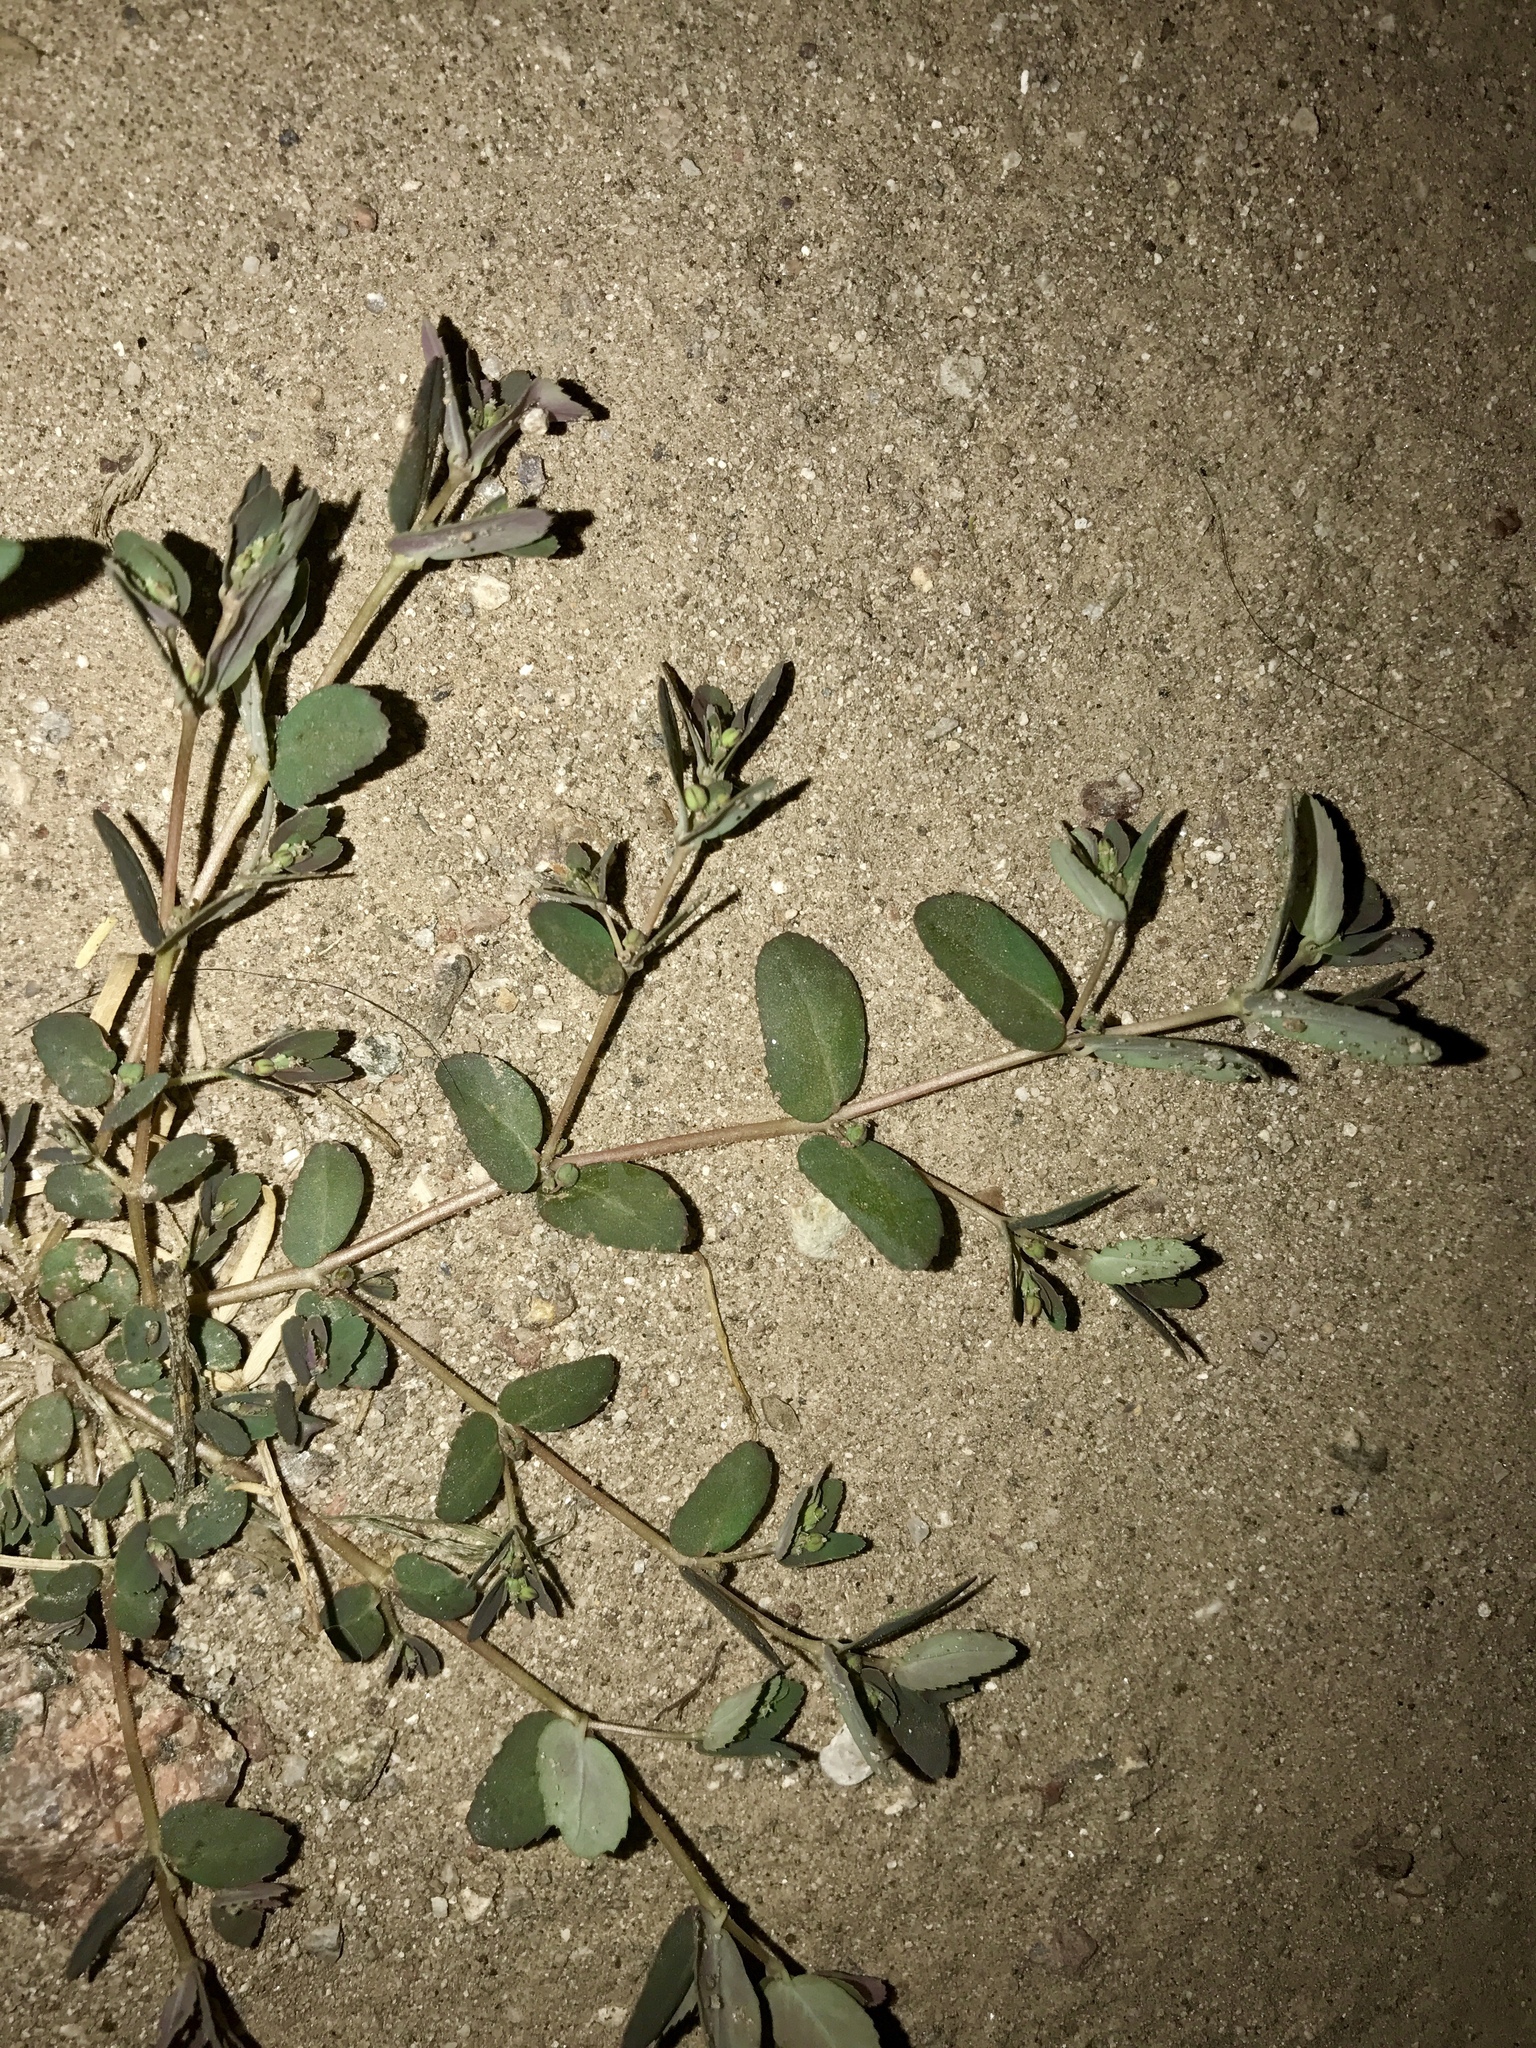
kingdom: Plantae
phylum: Tracheophyta
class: Magnoliopsida
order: Malpighiales
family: Euphorbiaceae
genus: Euphorbia
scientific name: Euphorbia abramsiana
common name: Abram's spurge
